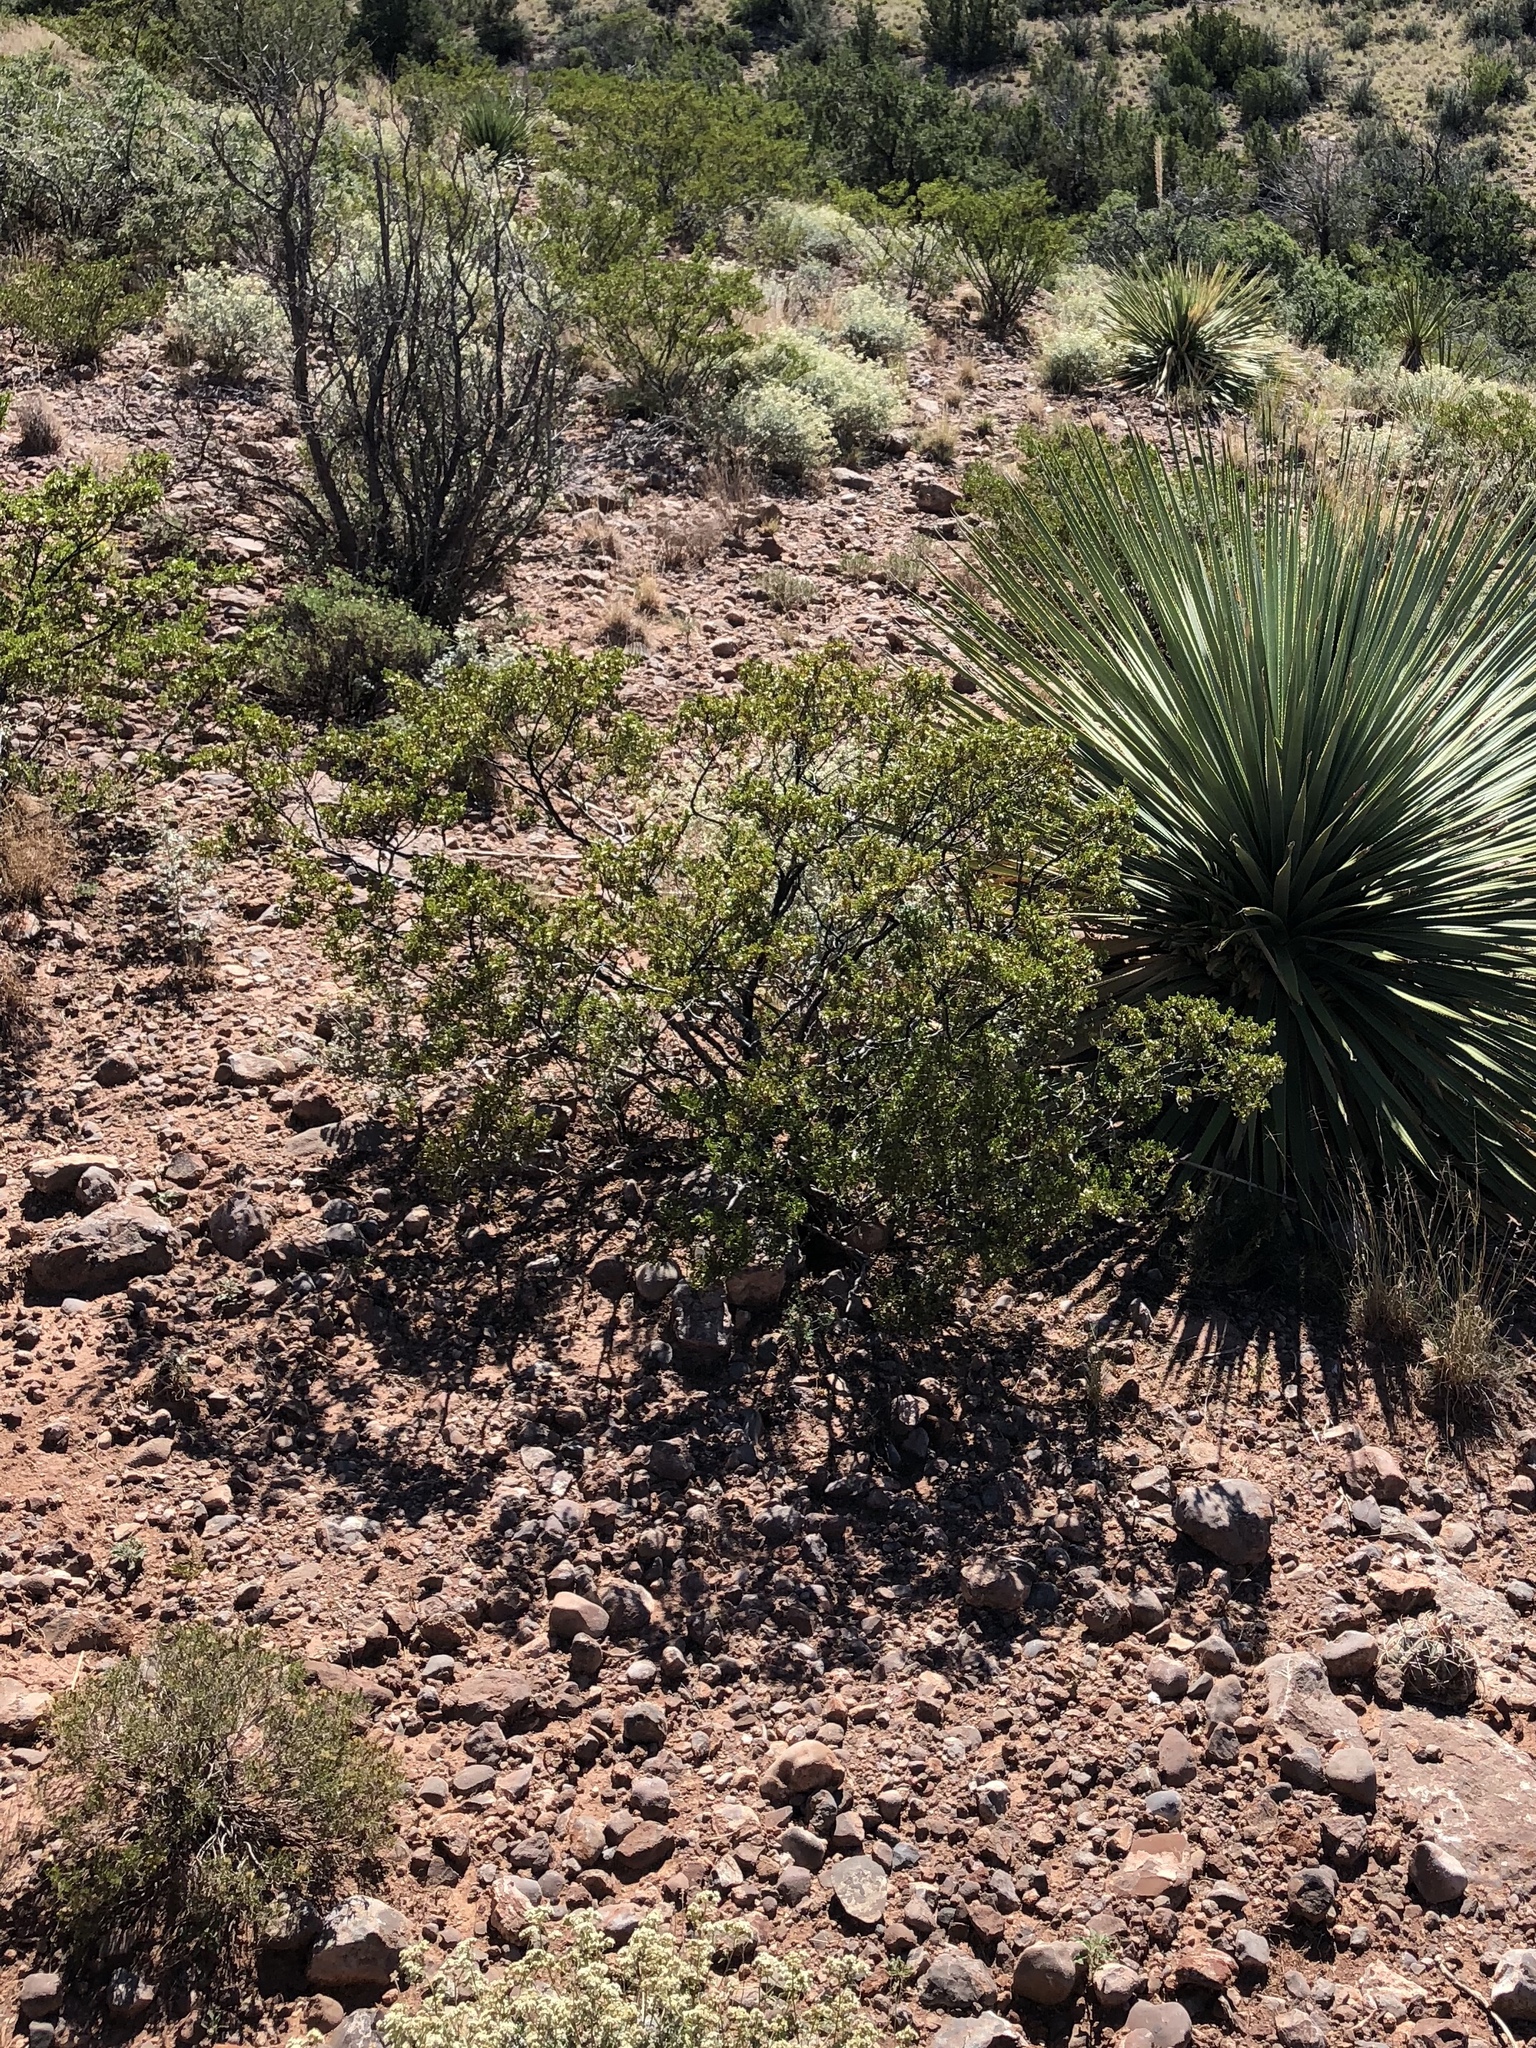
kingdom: Plantae
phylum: Tracheophyta
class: Magnoliopsida
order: Zygophyllales
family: Zygophyllaceae
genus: Larrea
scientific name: Larrea tridentata
